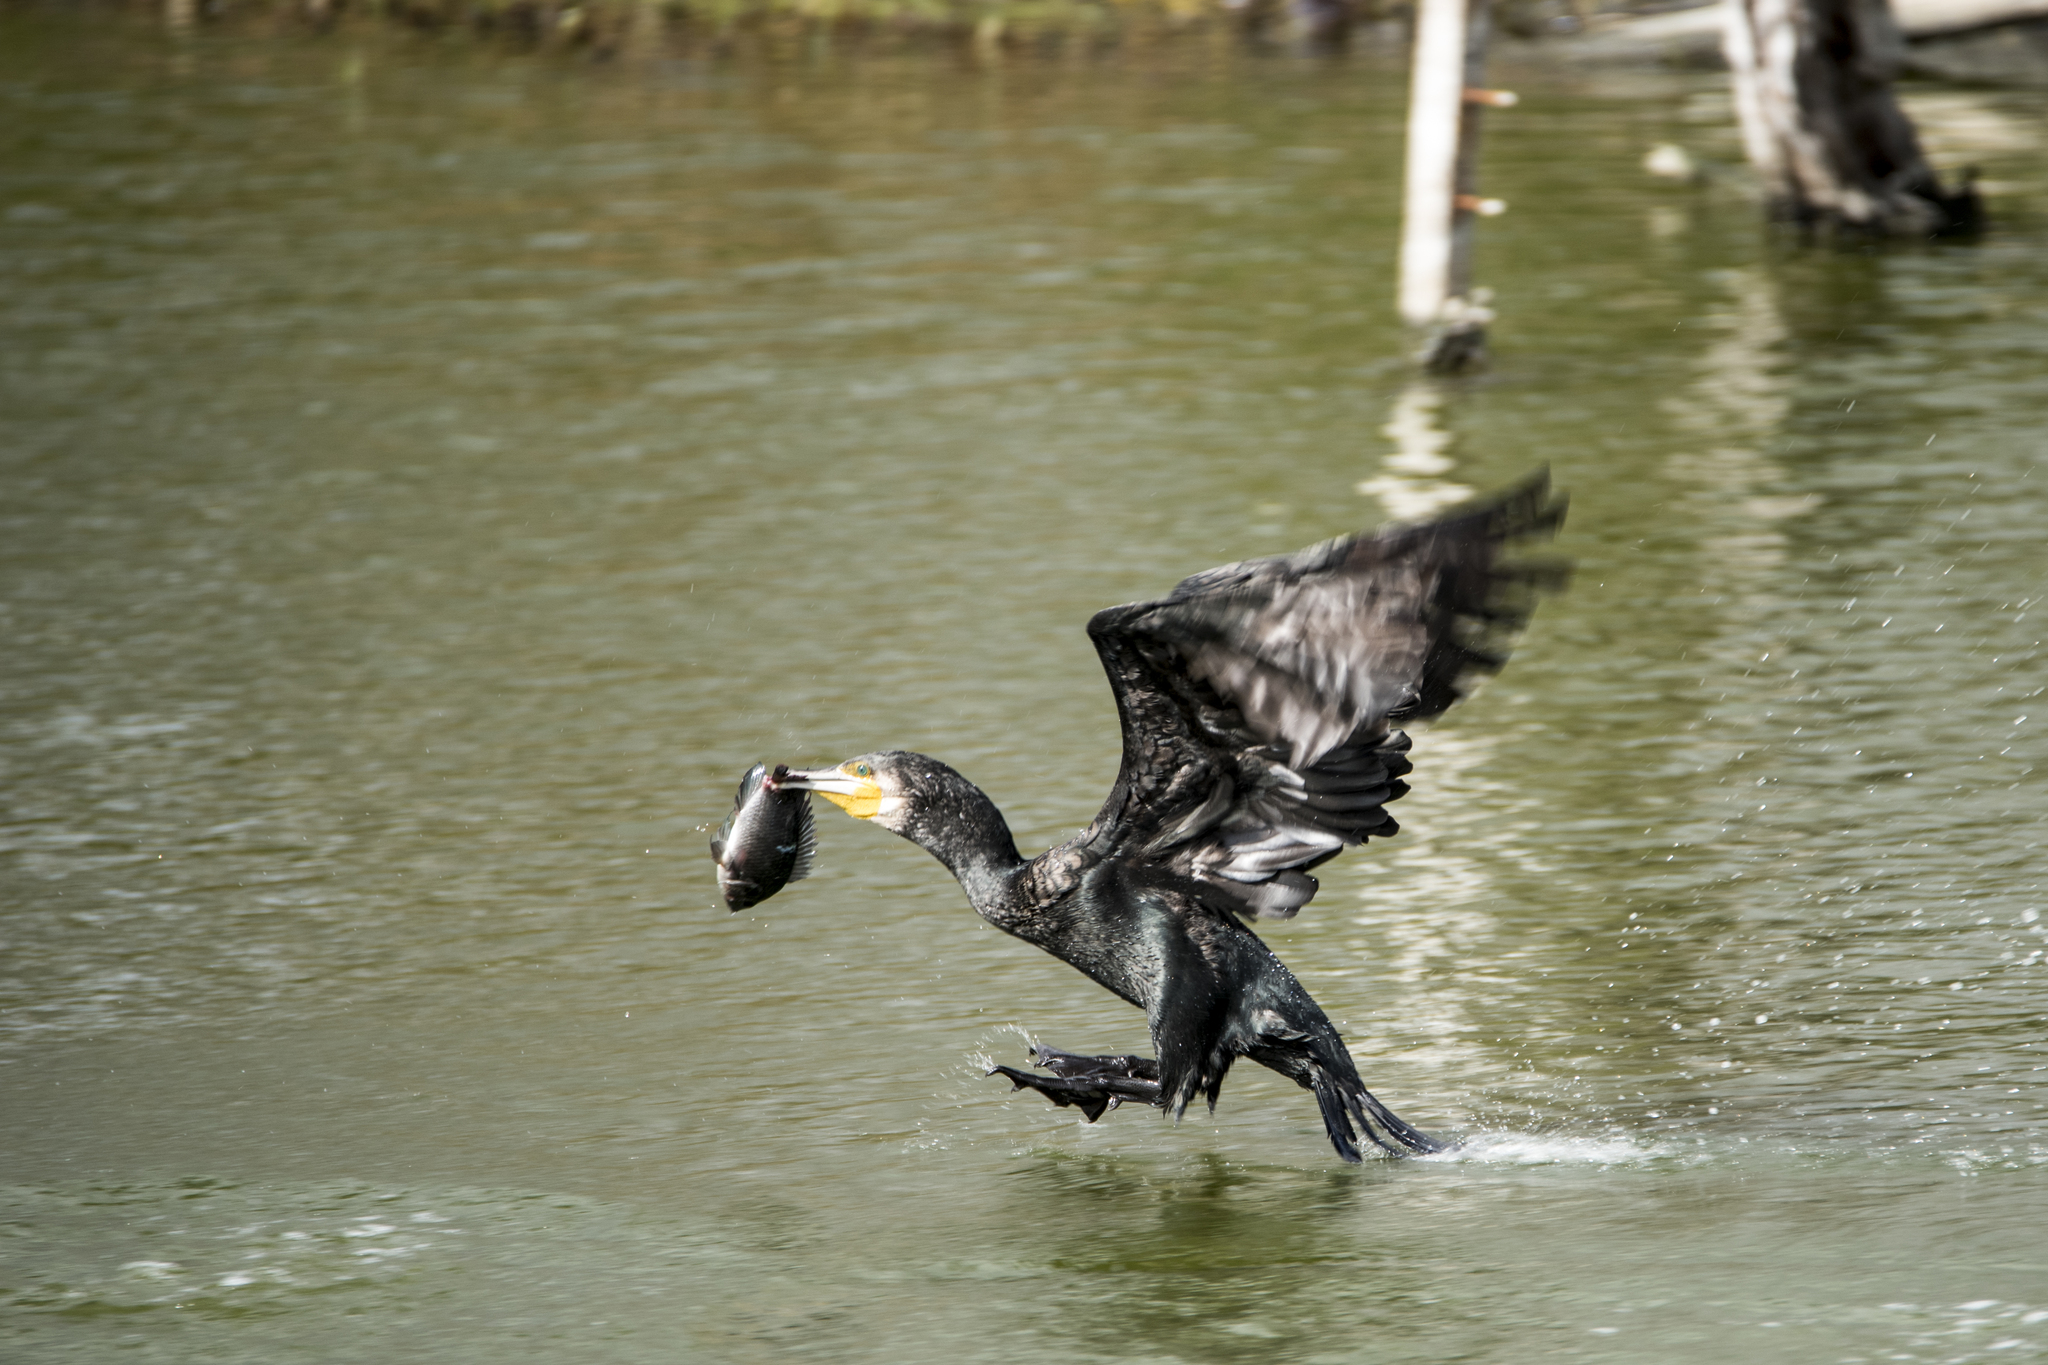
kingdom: Animalia
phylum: Chordata
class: Aves
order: Suliformes
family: Phalacrocoracidae
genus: Phalacrocorax
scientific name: Phalacrocorax carbo
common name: Great cormorant
